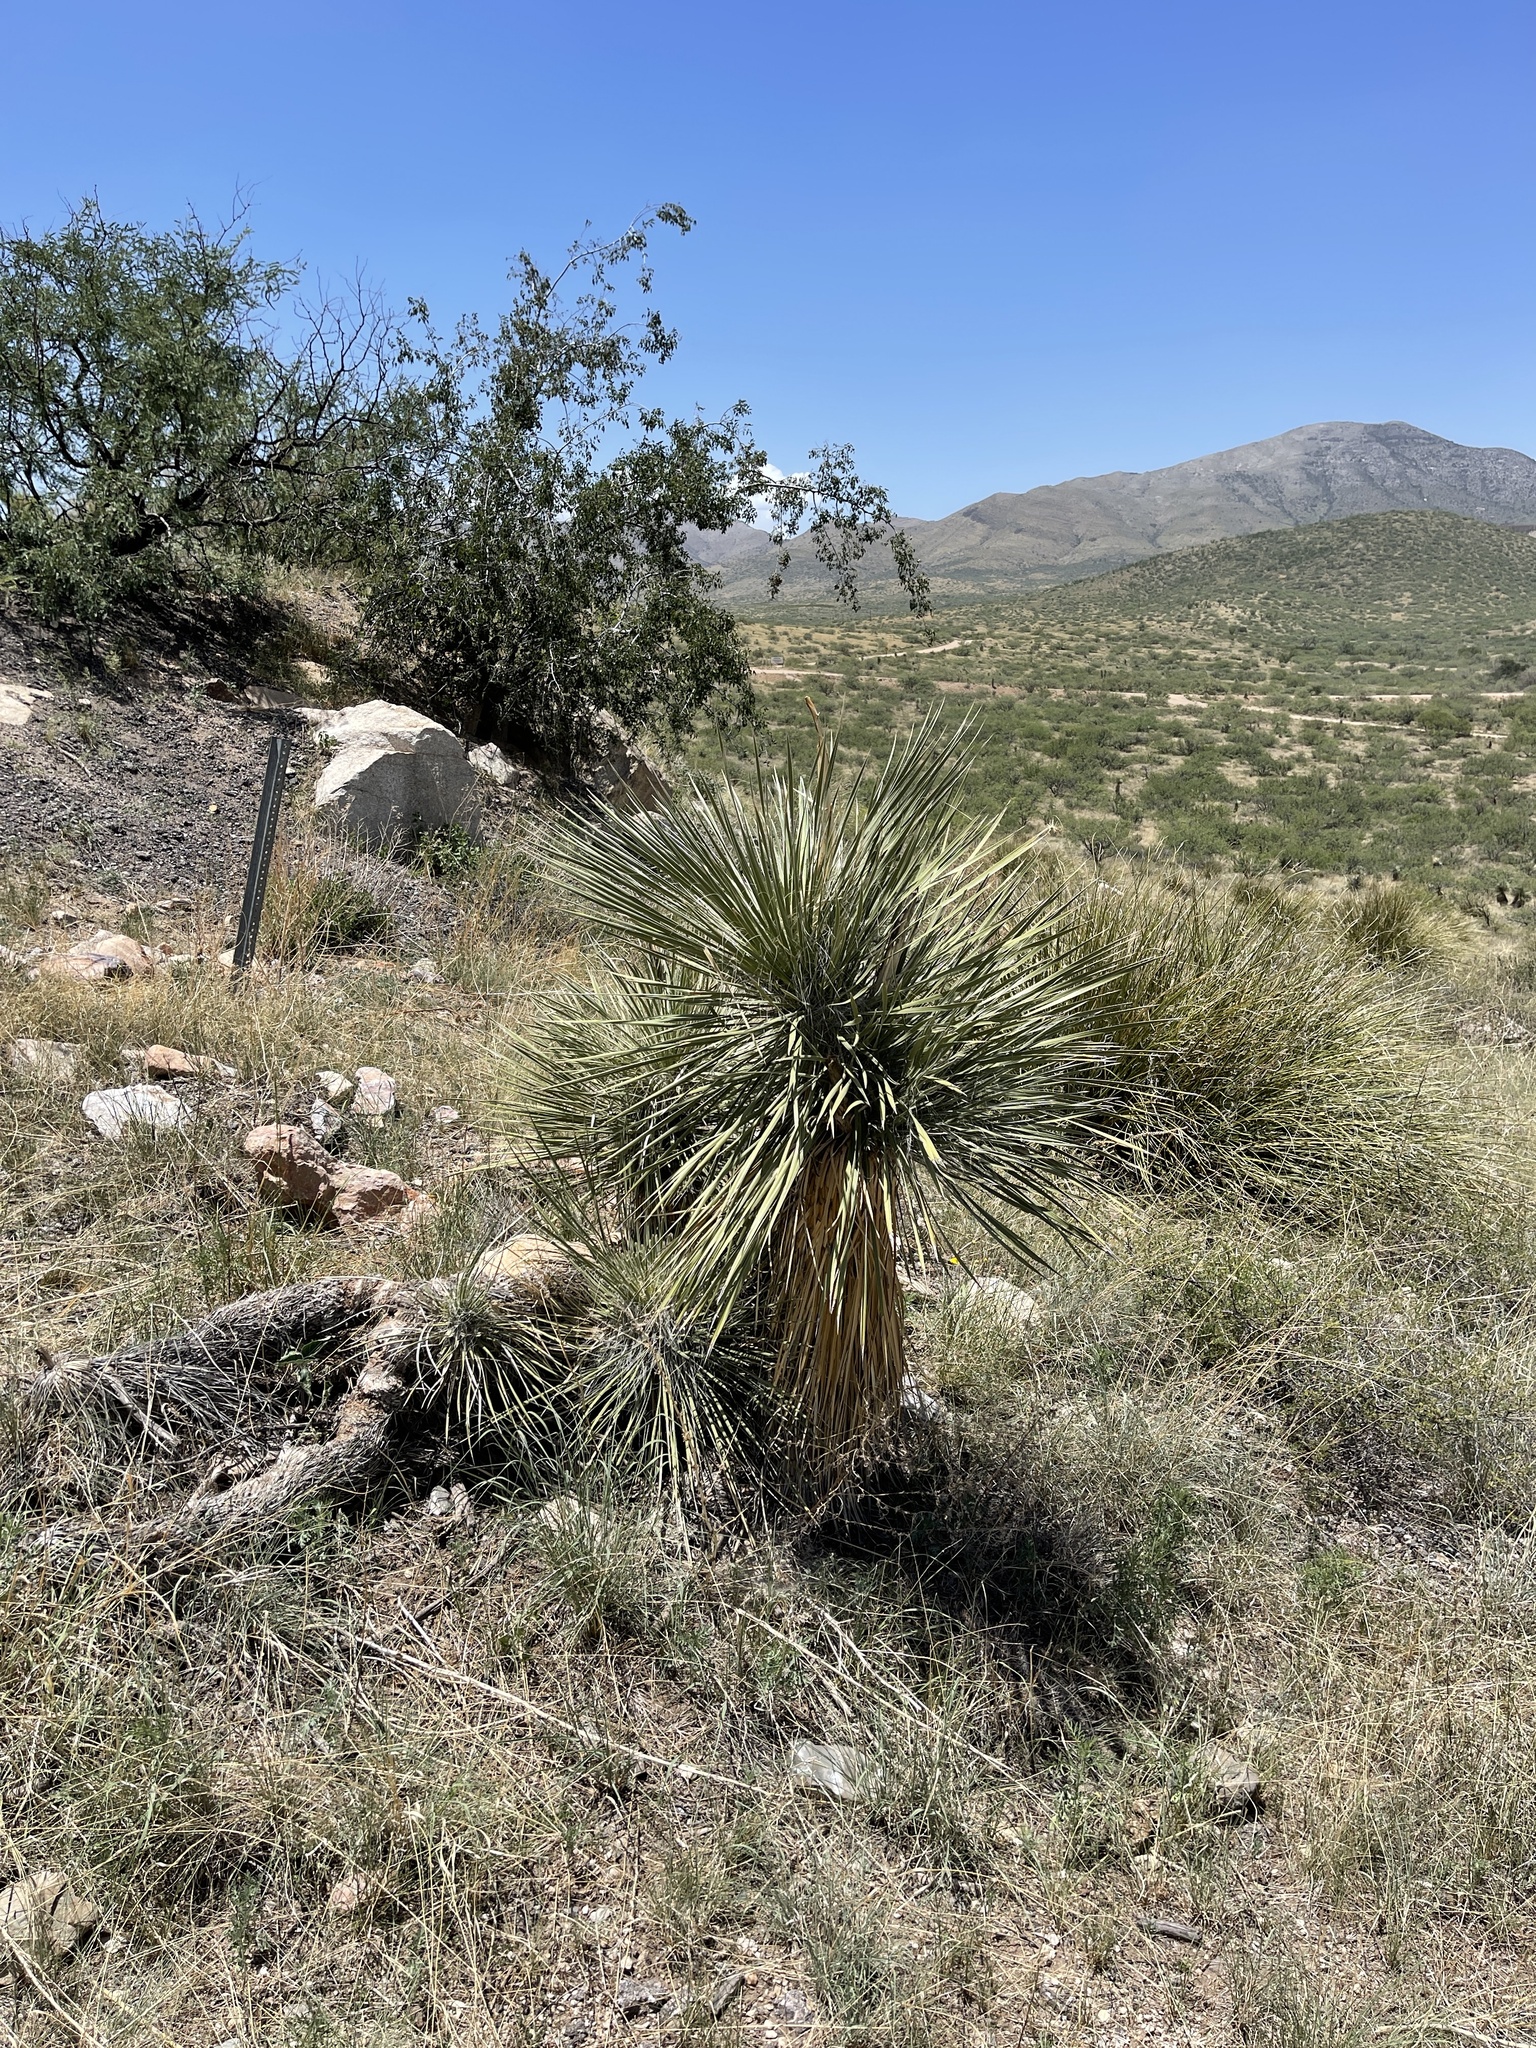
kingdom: Plantae
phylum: Tracheophyta
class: Liliopsida
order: Asparagales
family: Asparagaceae
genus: Yucca
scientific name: Yucca elata
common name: Palmella
